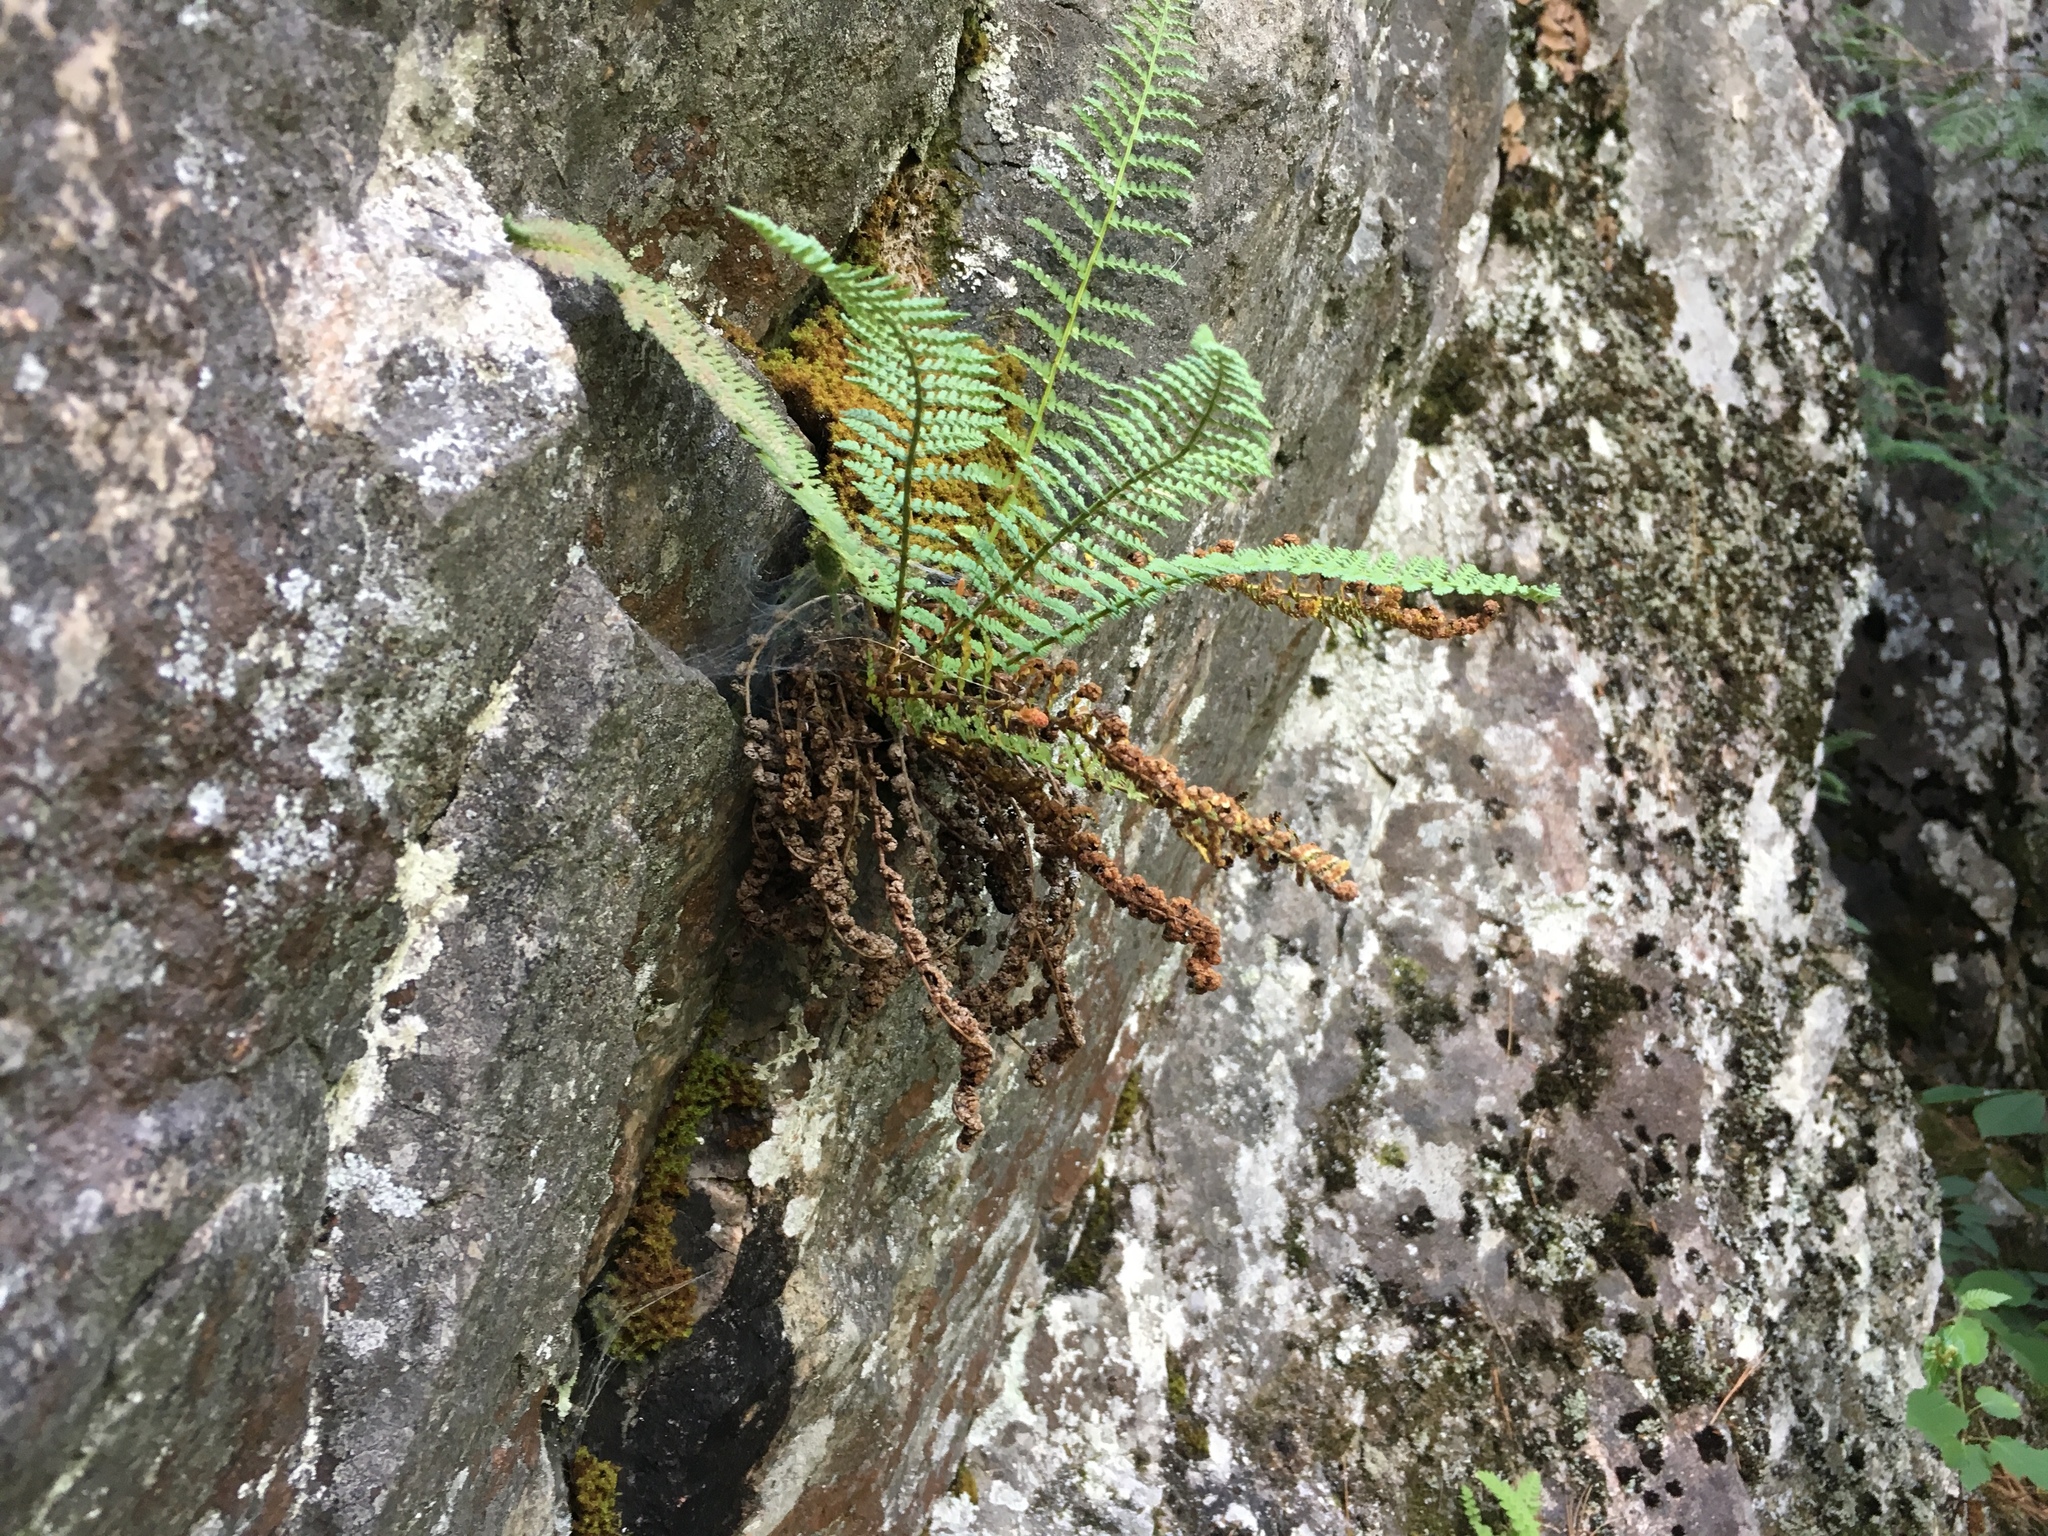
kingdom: Plantae
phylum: Tracheophyta
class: Polypodiopsida
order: Polypodiales
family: Dryopteridaceae
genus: Dryopteris
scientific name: Dryopteris fragrans
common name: Fragrant wood fern
